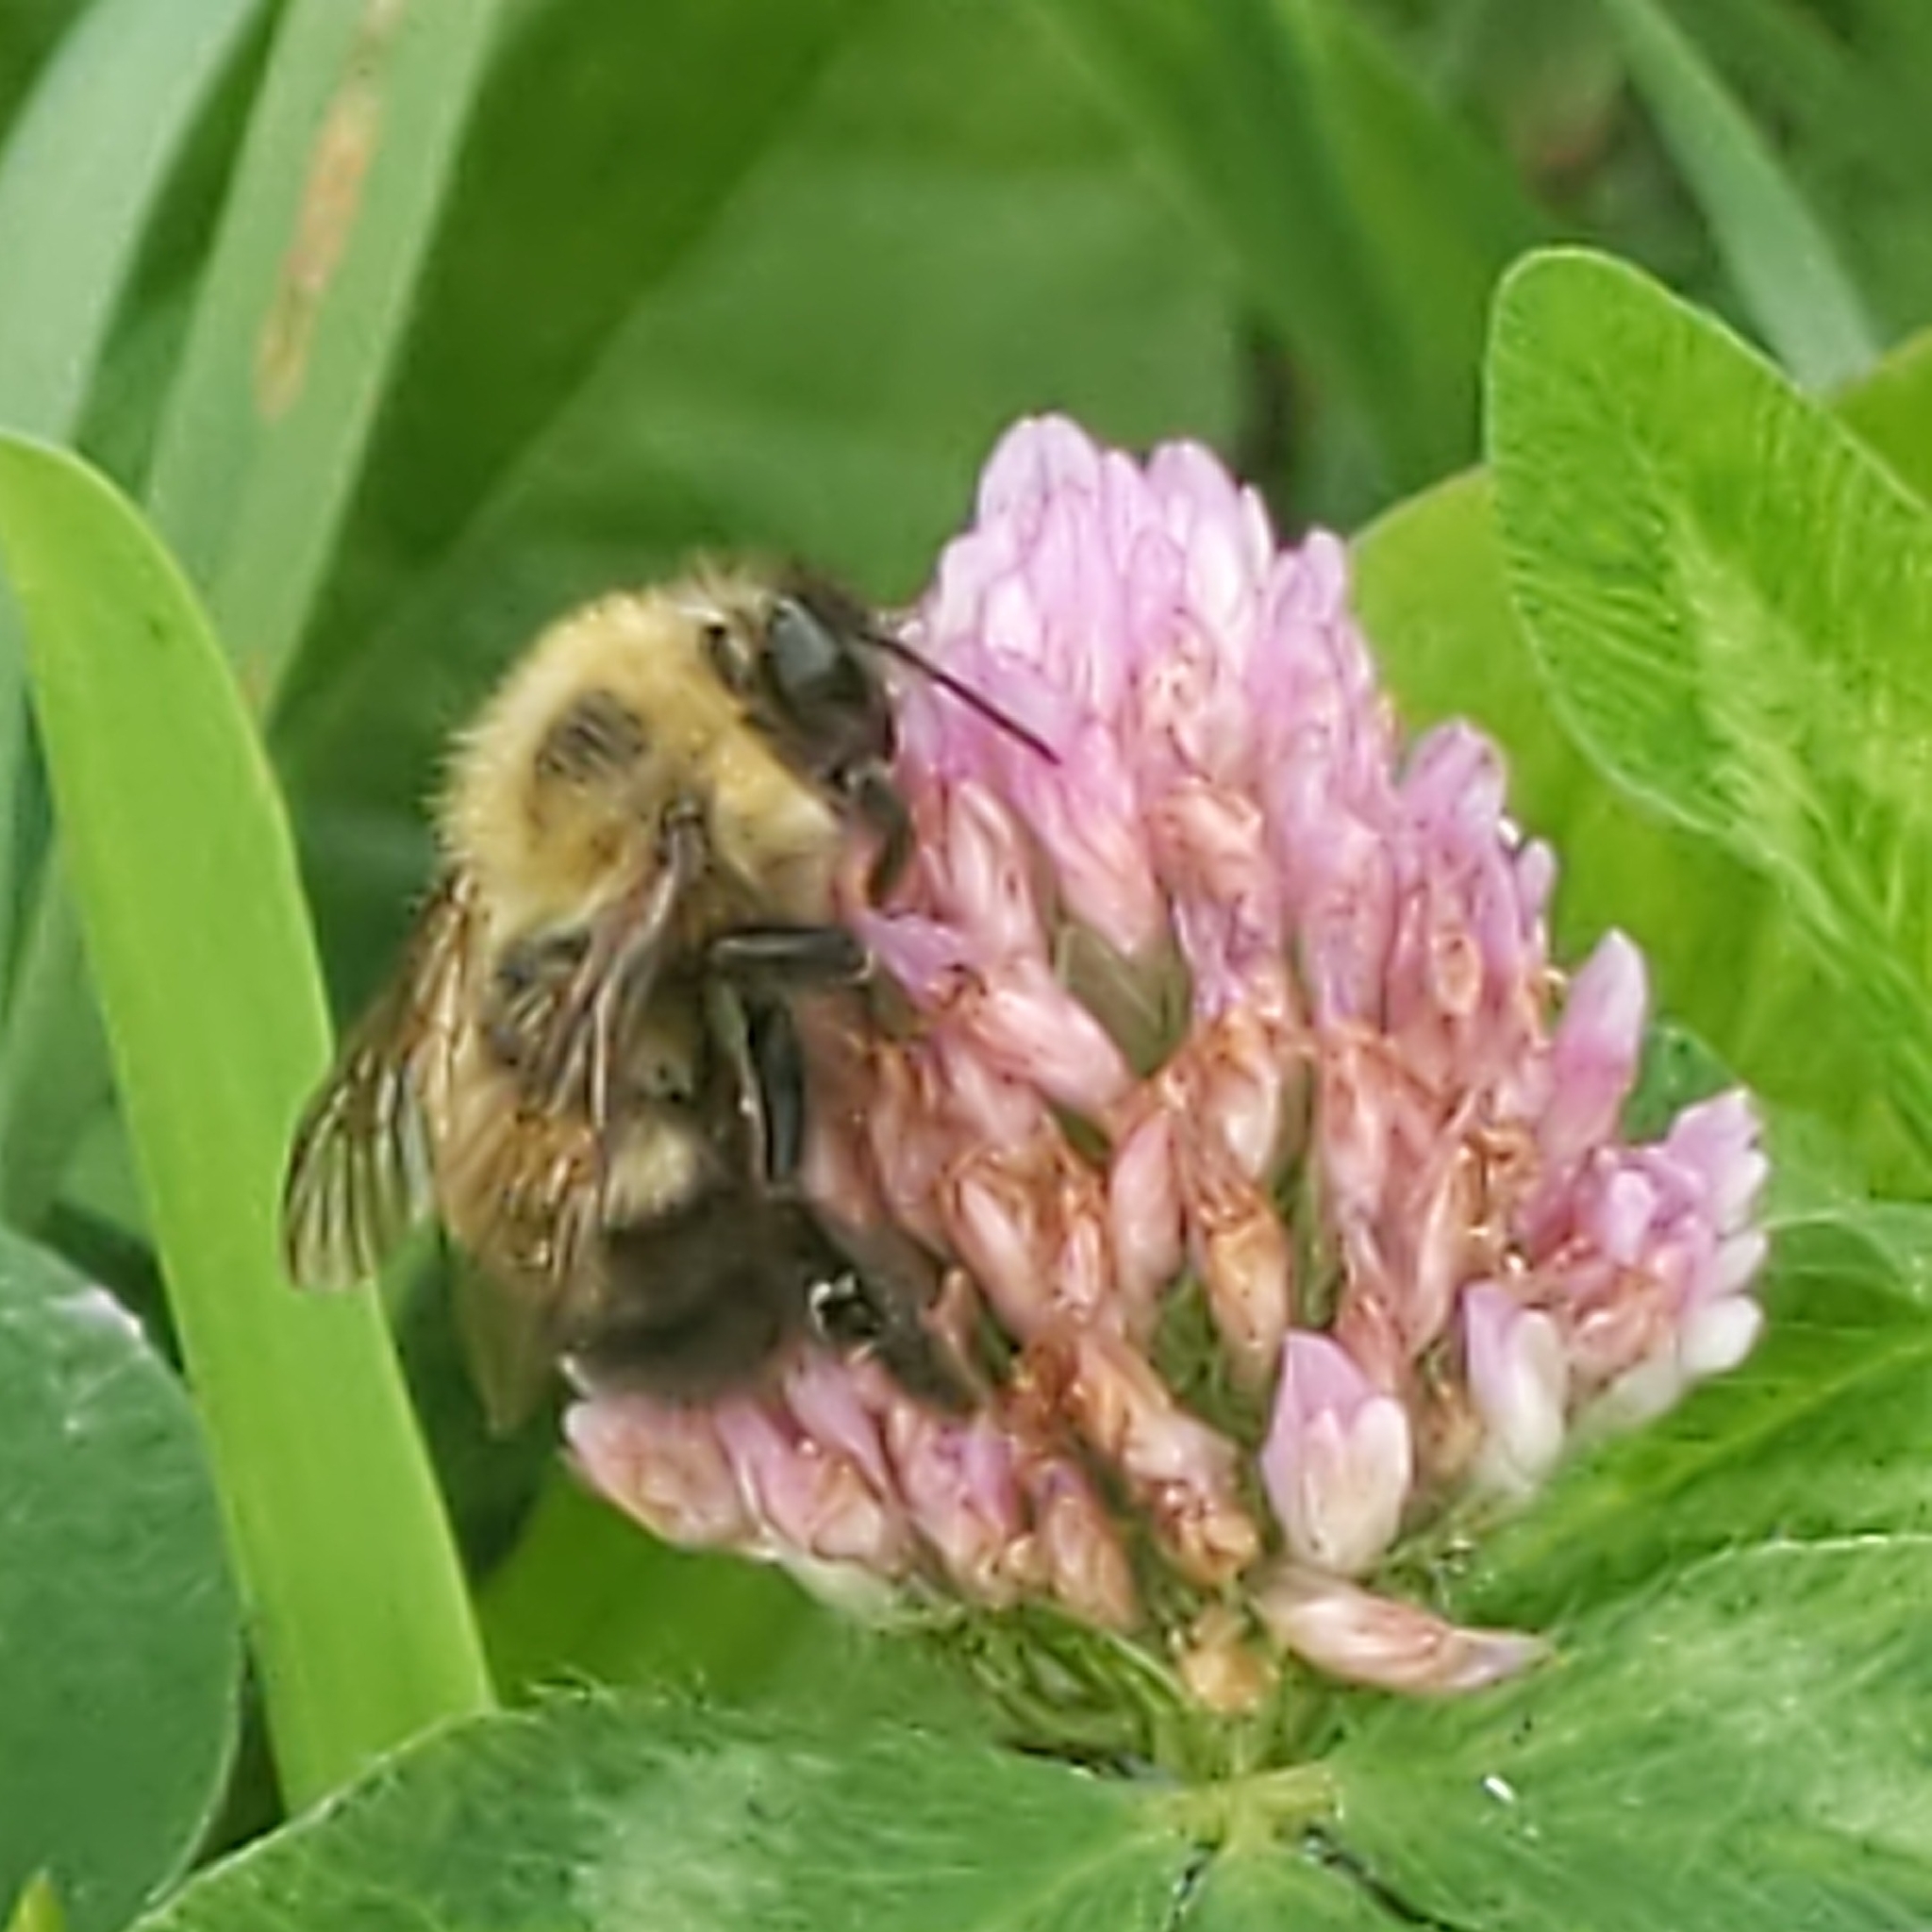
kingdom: Animalia
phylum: Arthropoda
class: Insecta
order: Hymenoptera
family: Apidae
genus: Bombus
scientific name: Bombus perplexus
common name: Confusing bumble bee
